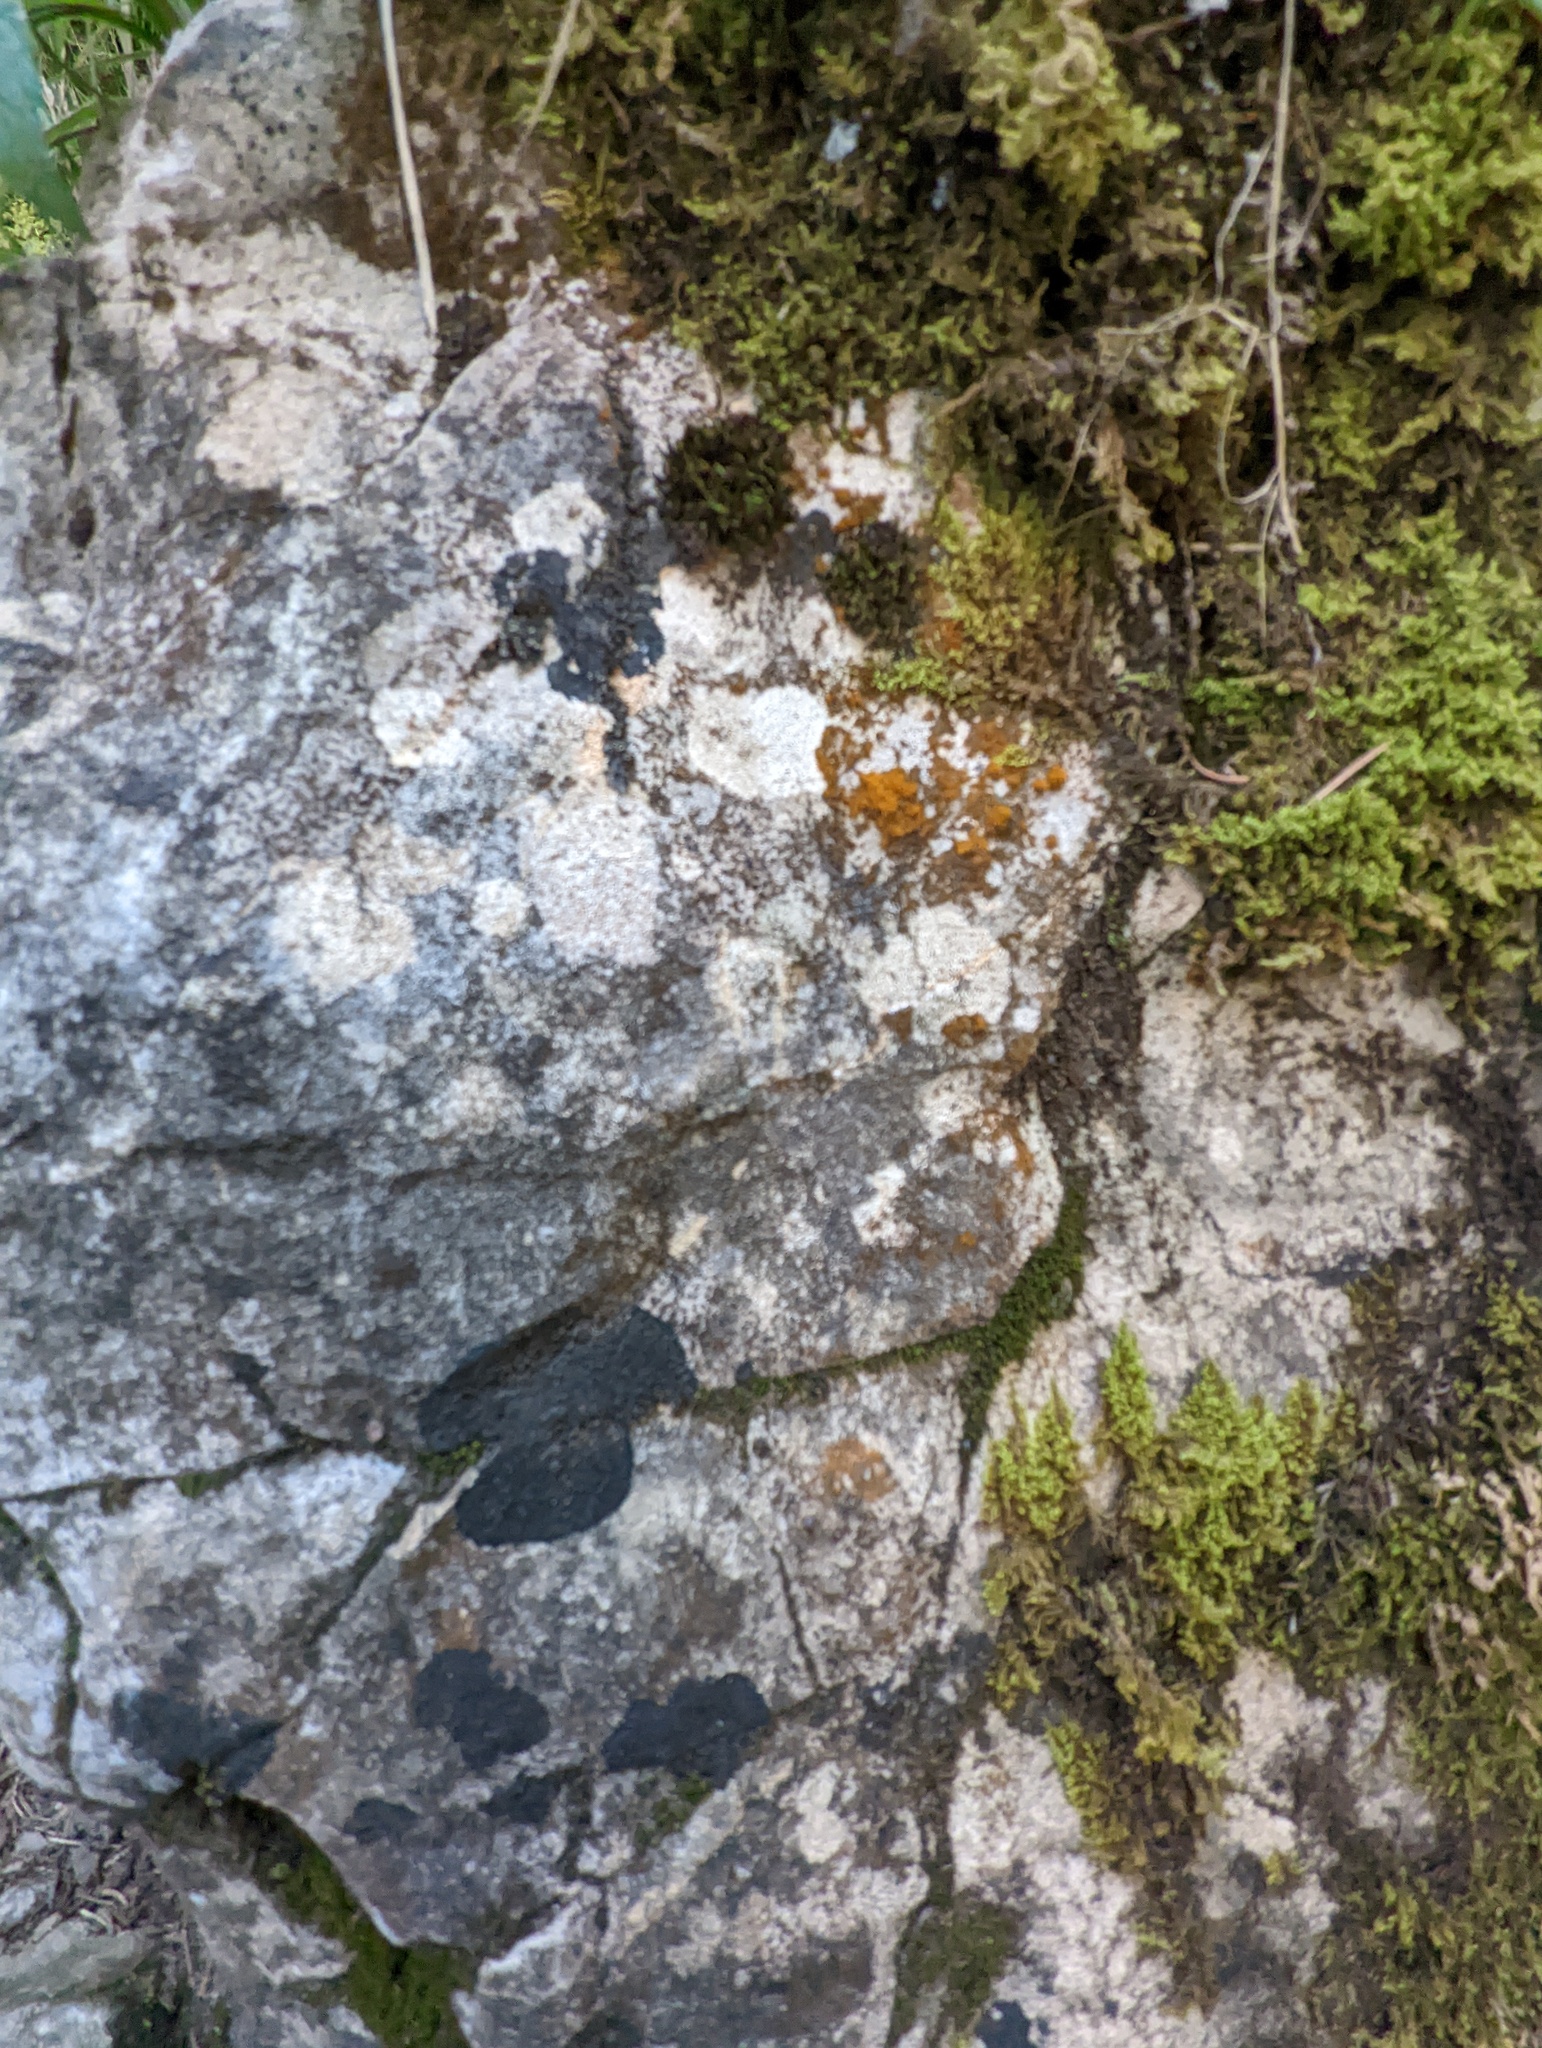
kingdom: Fungi
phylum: Ascomycota
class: Lecanoromycetes
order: Peltigerales
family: Placynthiaceae
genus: Placynthium
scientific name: Placynthium nigrum
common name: Blackthread lichen
